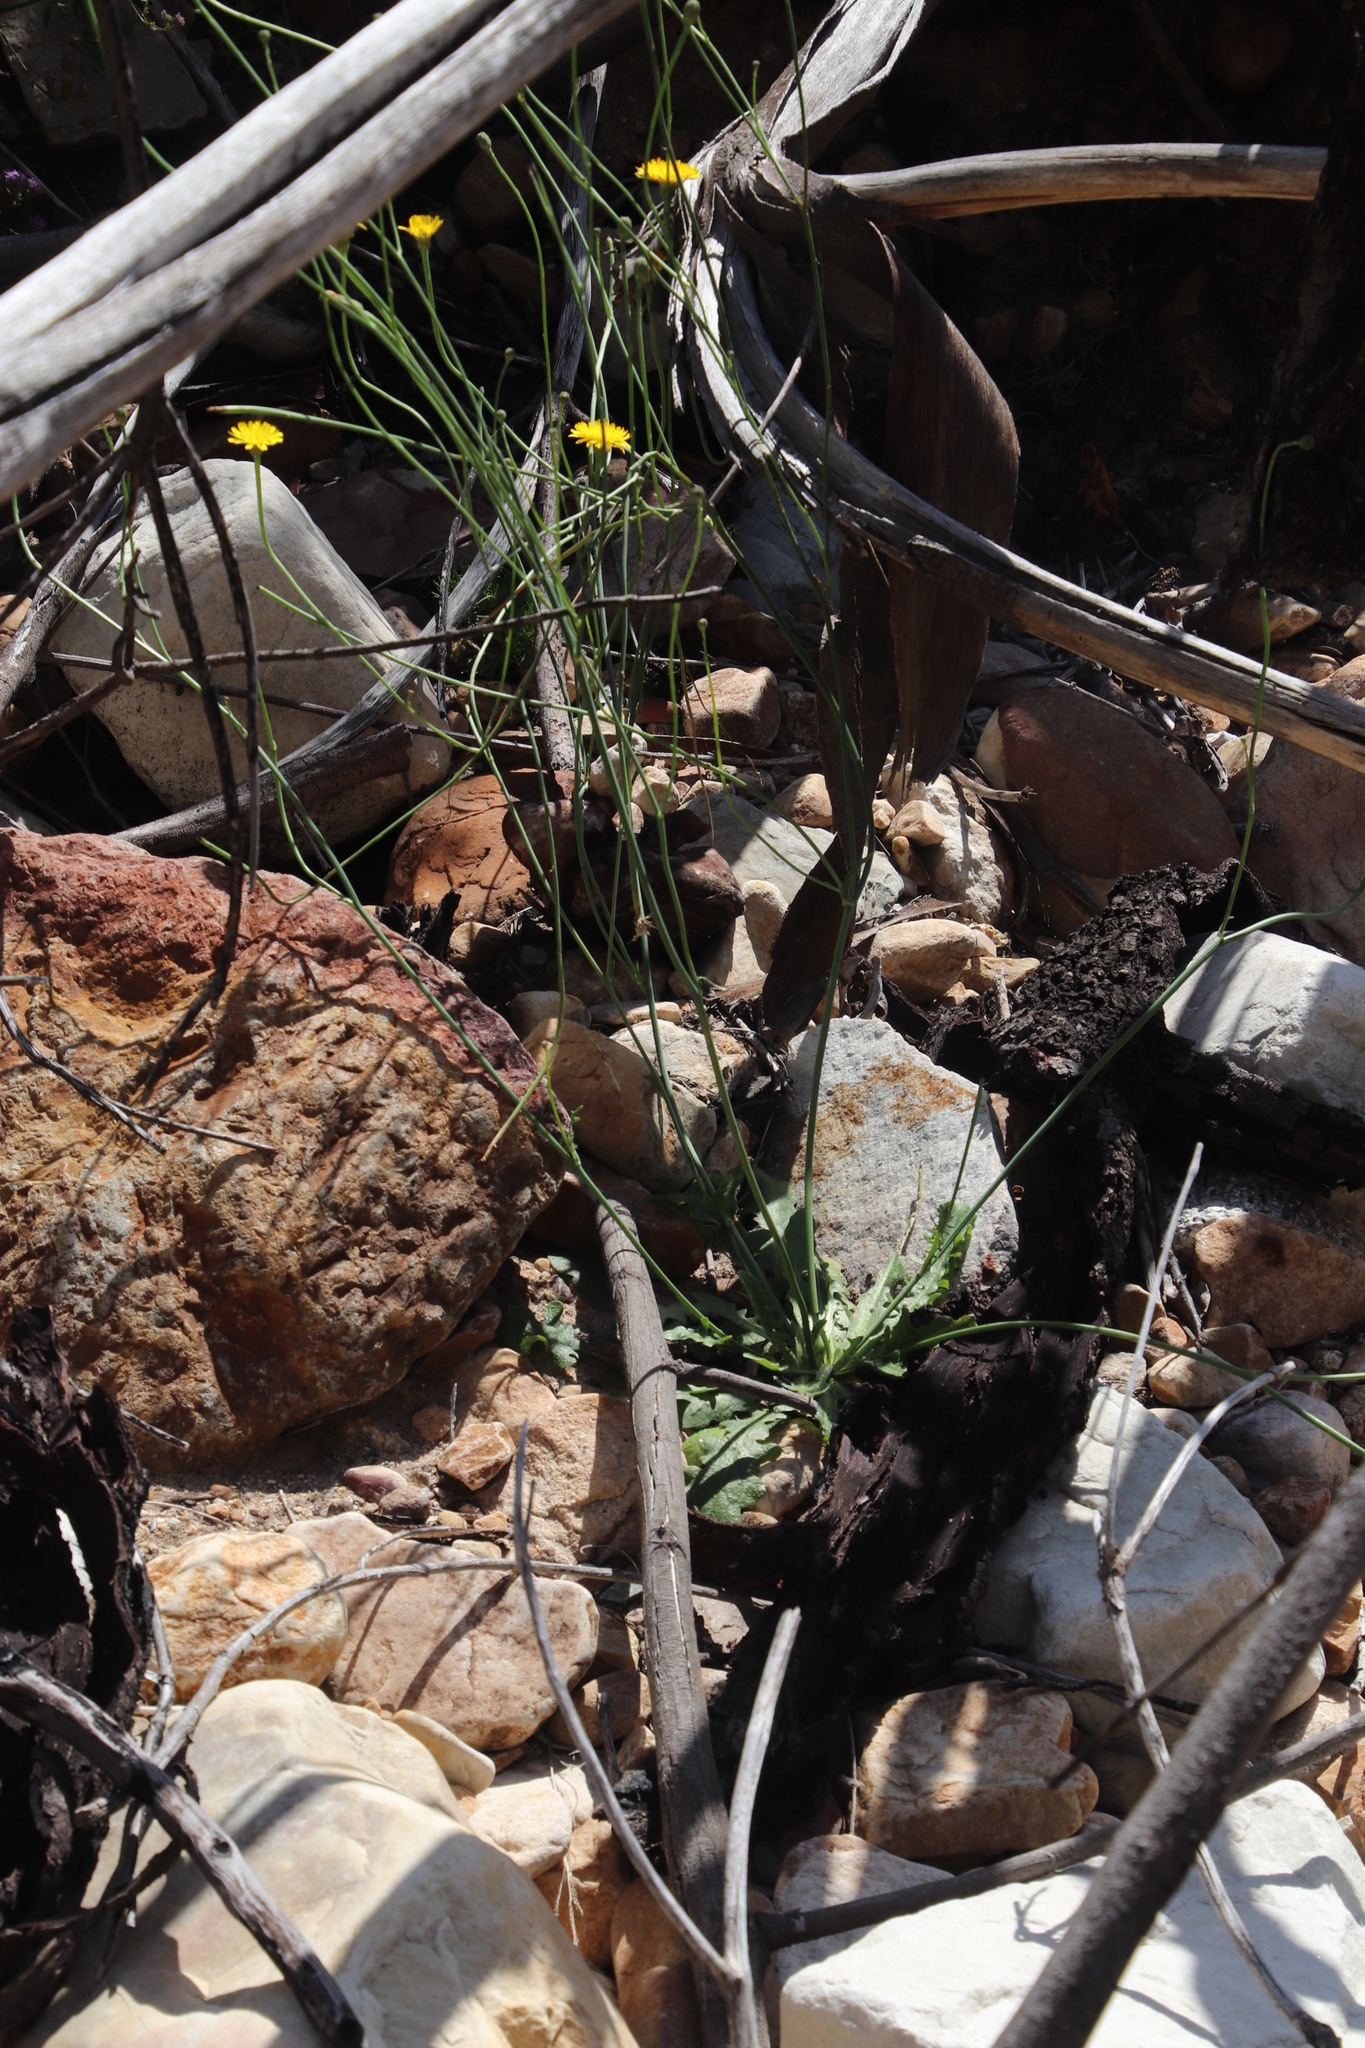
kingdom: Plantae
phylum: Tracheophyta
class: Magnoliopsida
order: Asterales
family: Asteraceae
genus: Hypochaeris
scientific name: Hypochaeris radicata
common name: Flatweed
